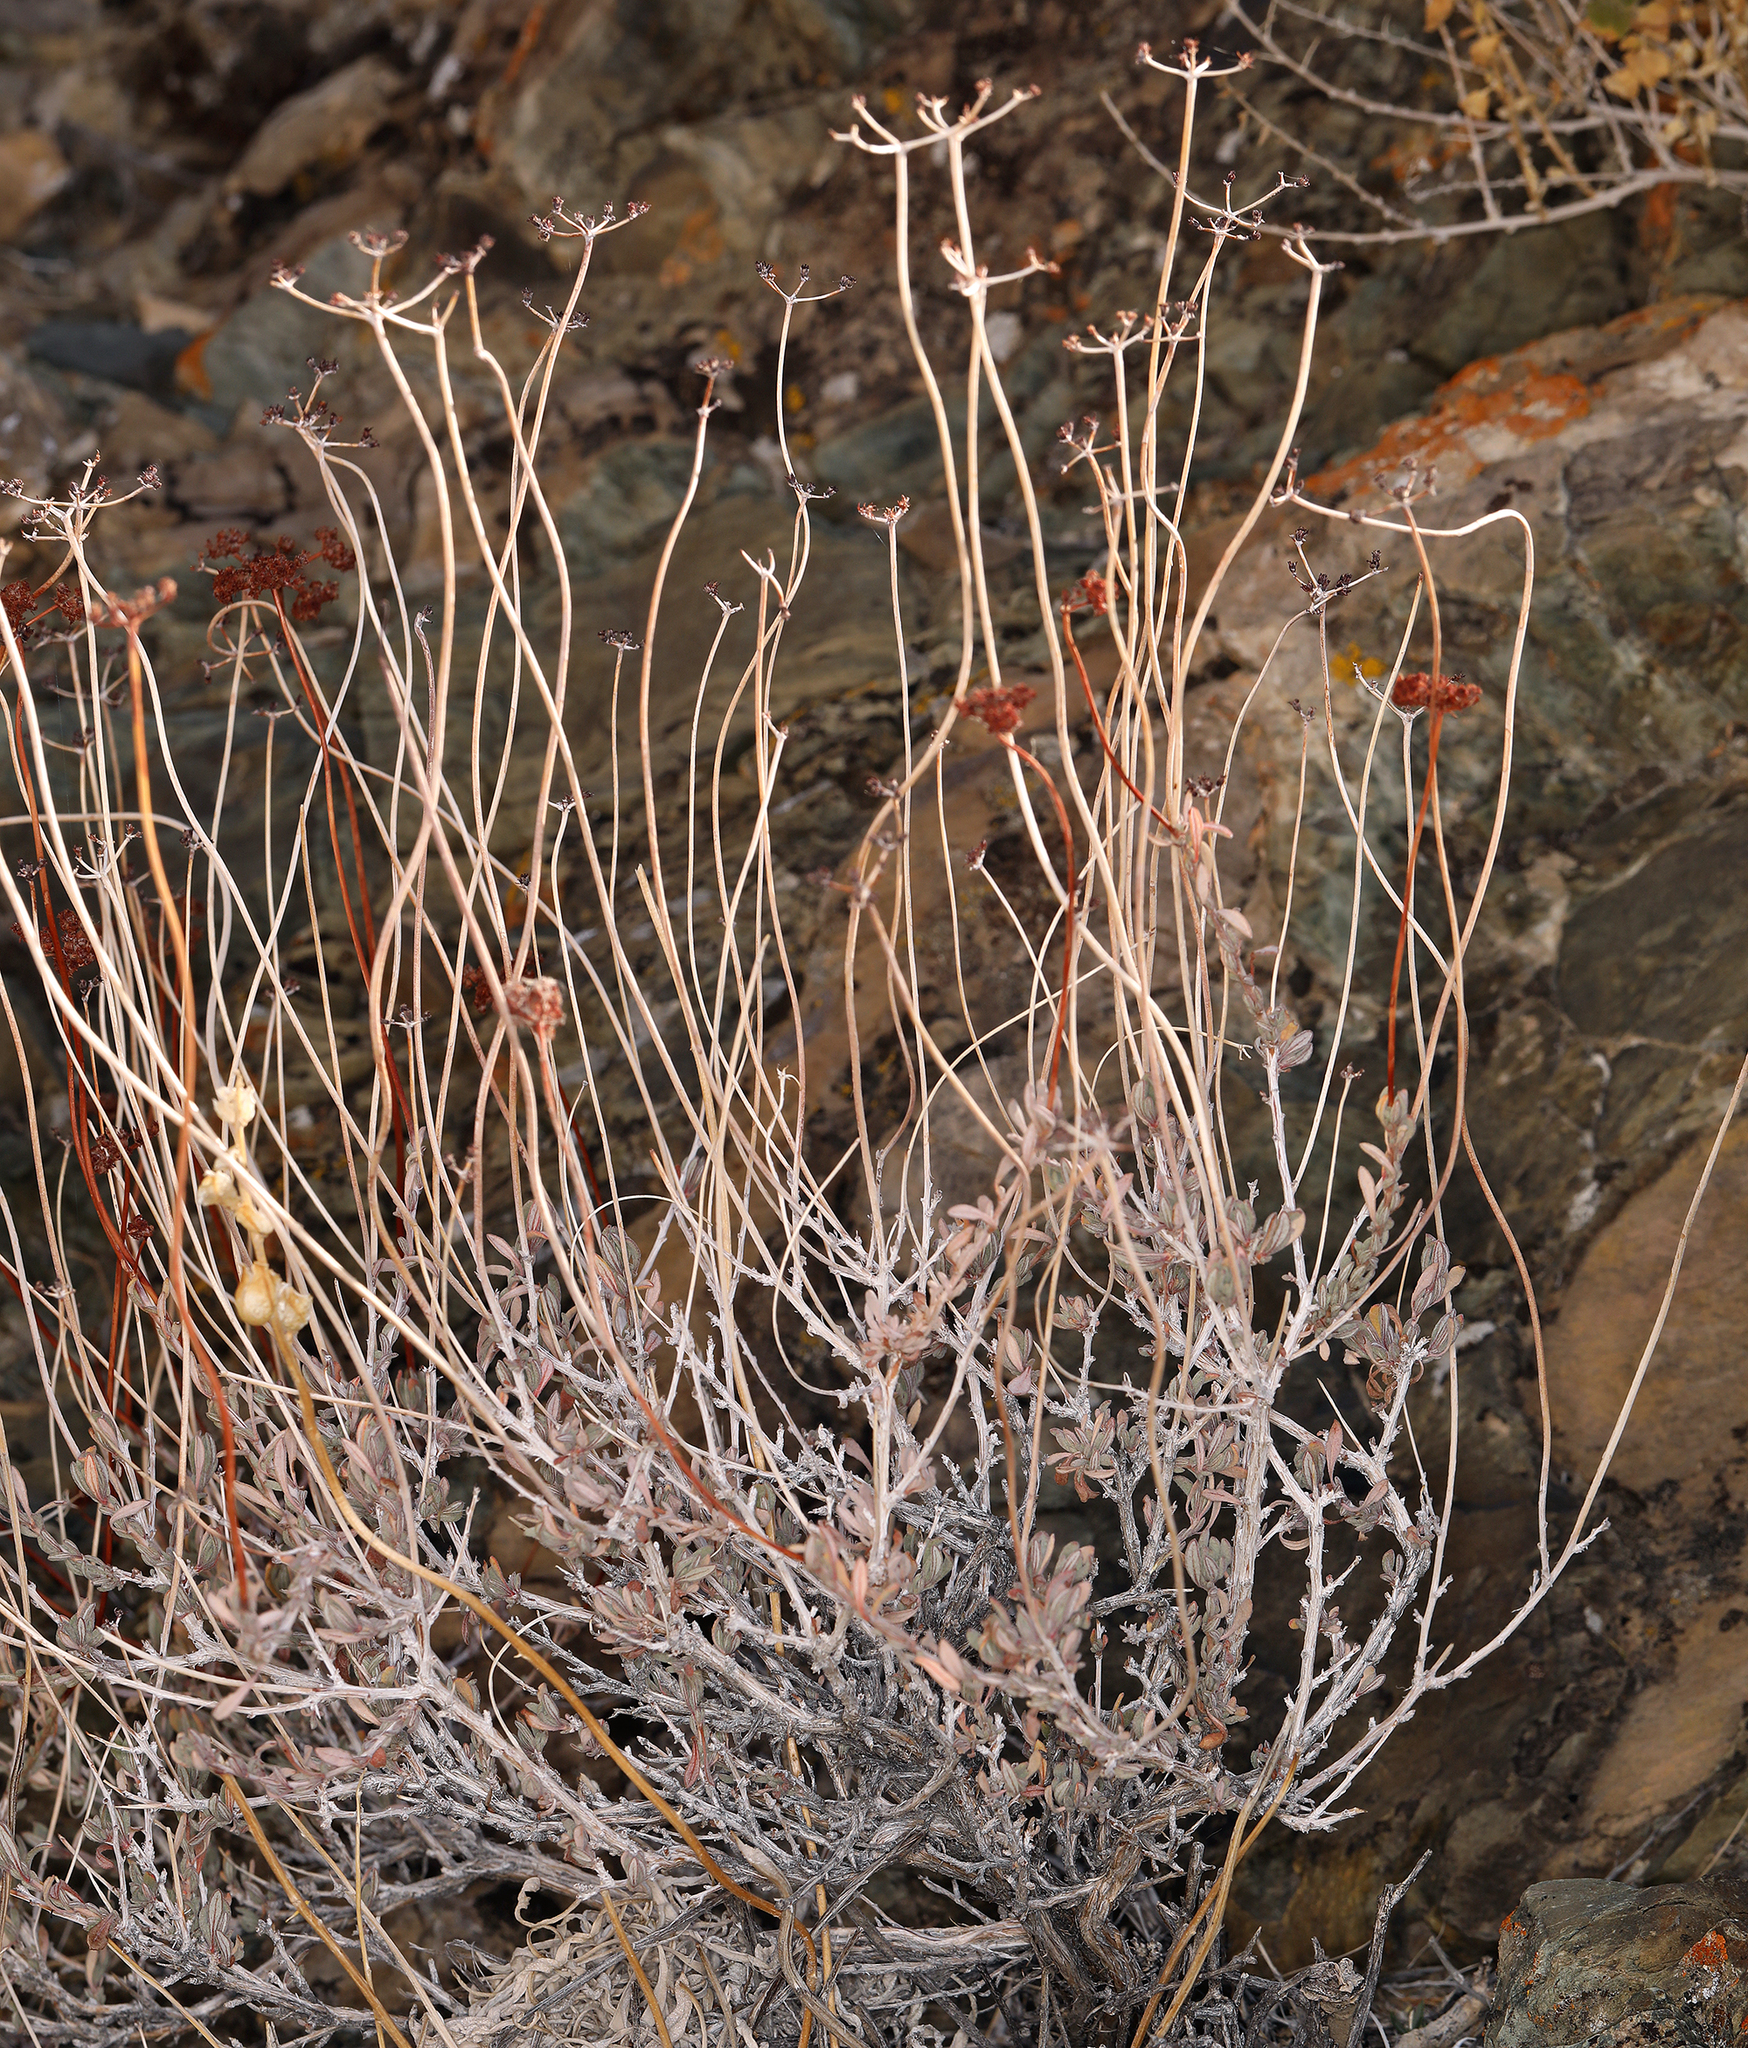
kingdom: Plantae
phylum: Tracheophyta
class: Magnoliopsida
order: Caryophyllales
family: Polygonaceae
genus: Eriogonum
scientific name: Eriogonum fasciculatum
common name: California wild buckwheat
